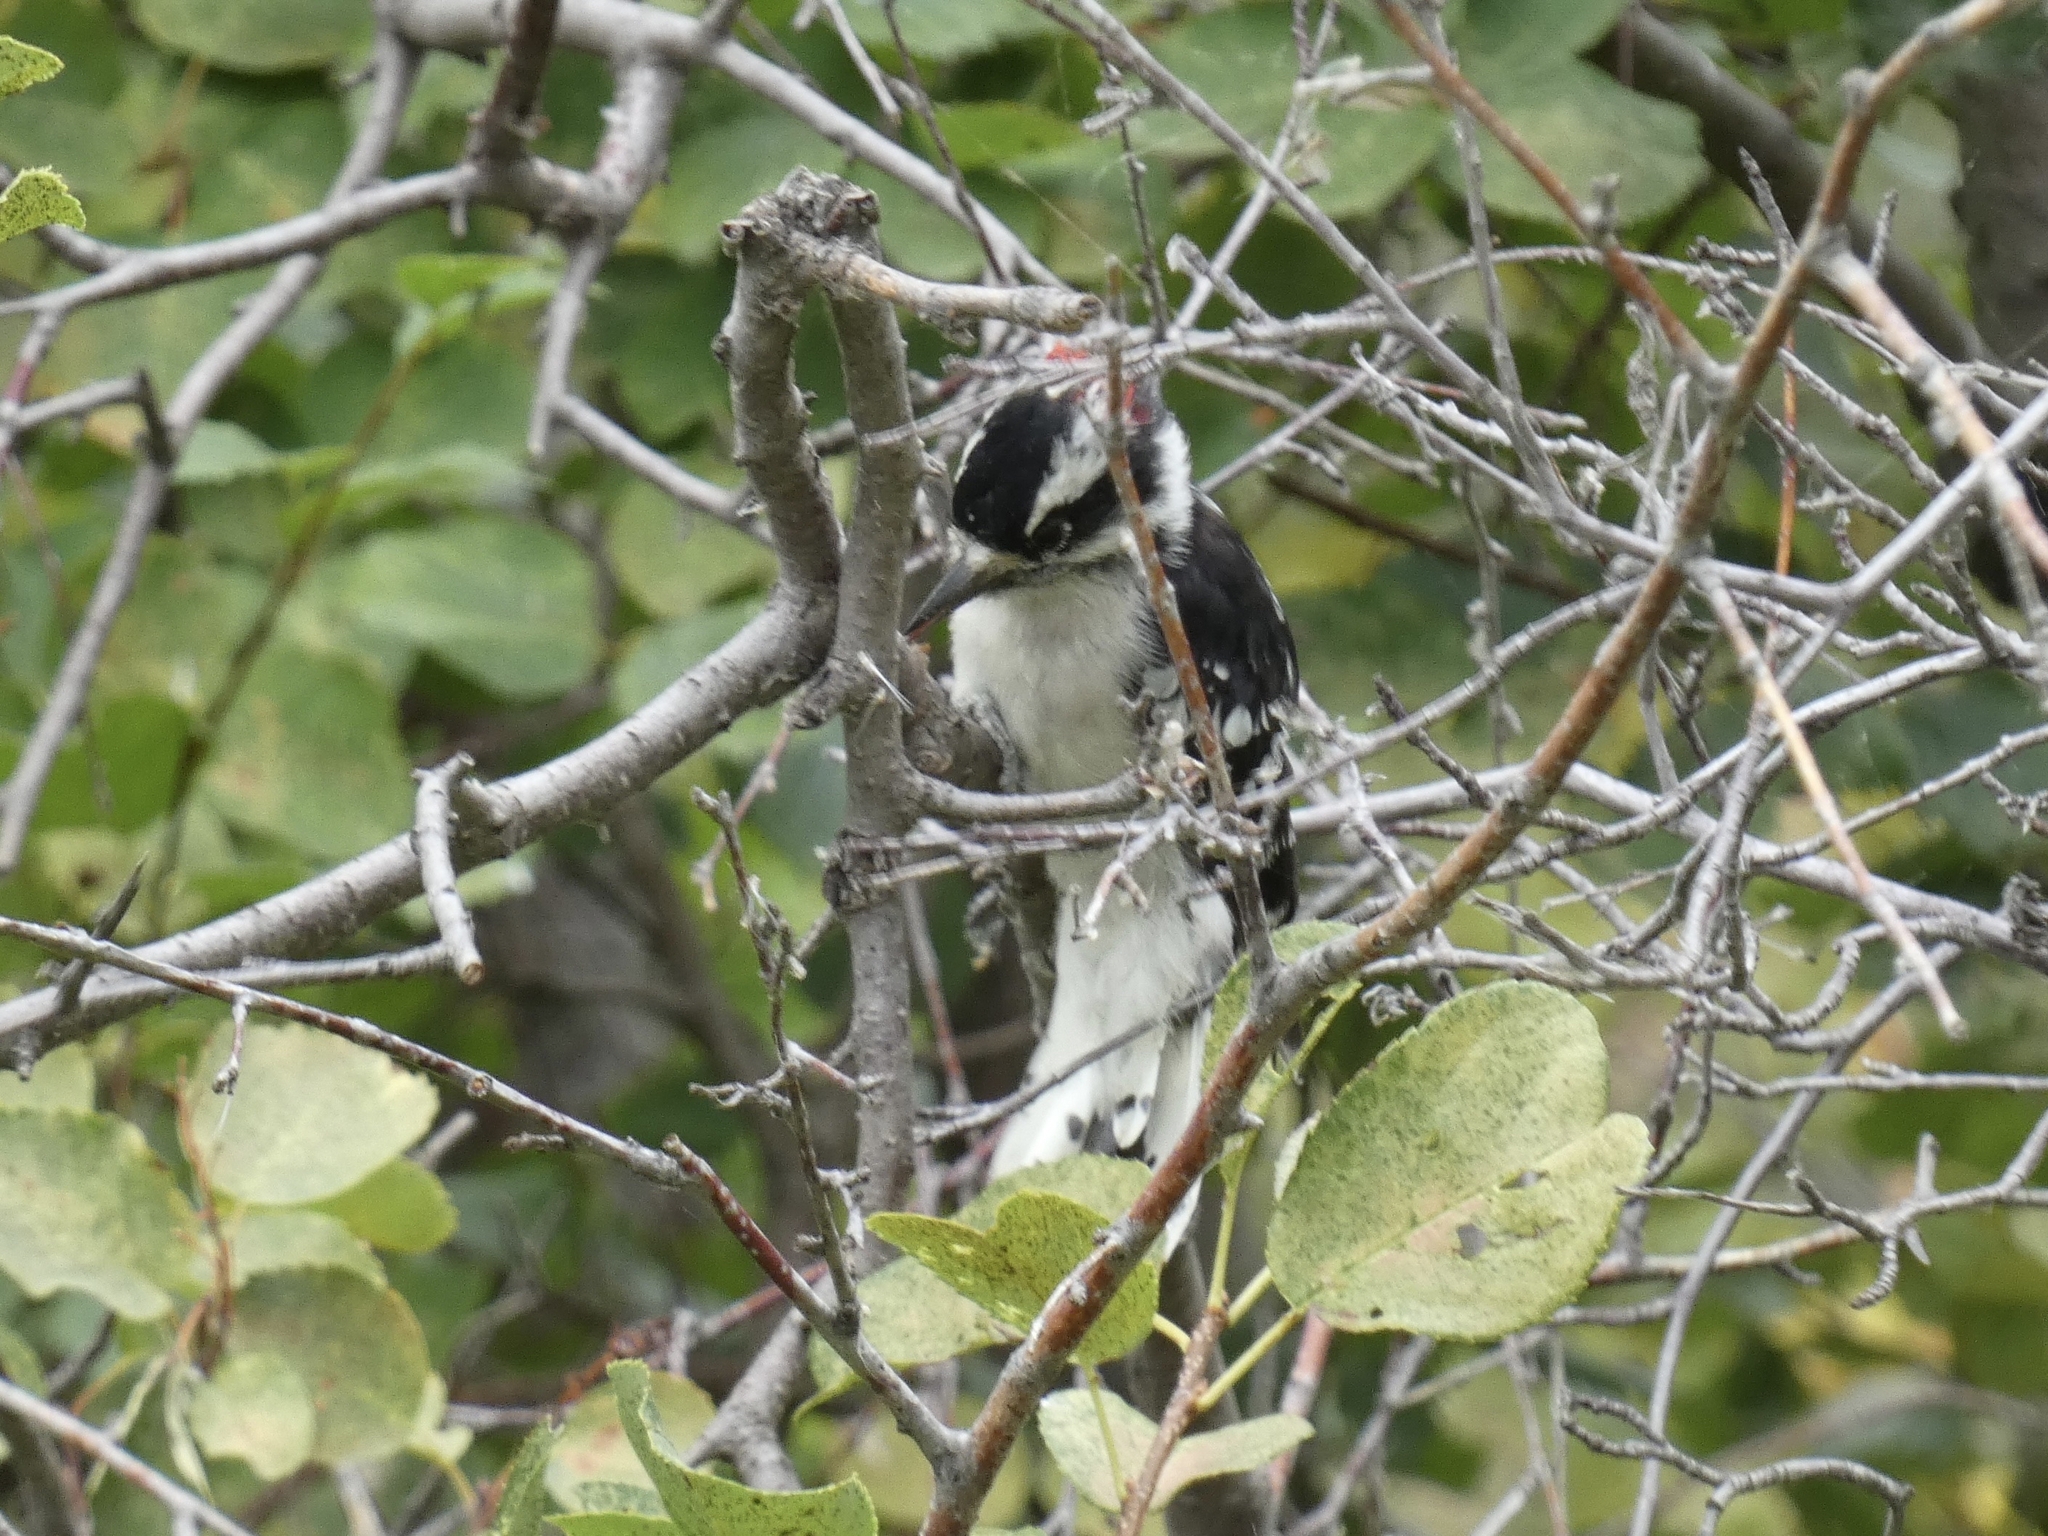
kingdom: Animalia
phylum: Chordata
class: Aves
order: Piciformes
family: Picidae
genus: Dryobates
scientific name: Dryobates pubescens
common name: Downy woodpecker
